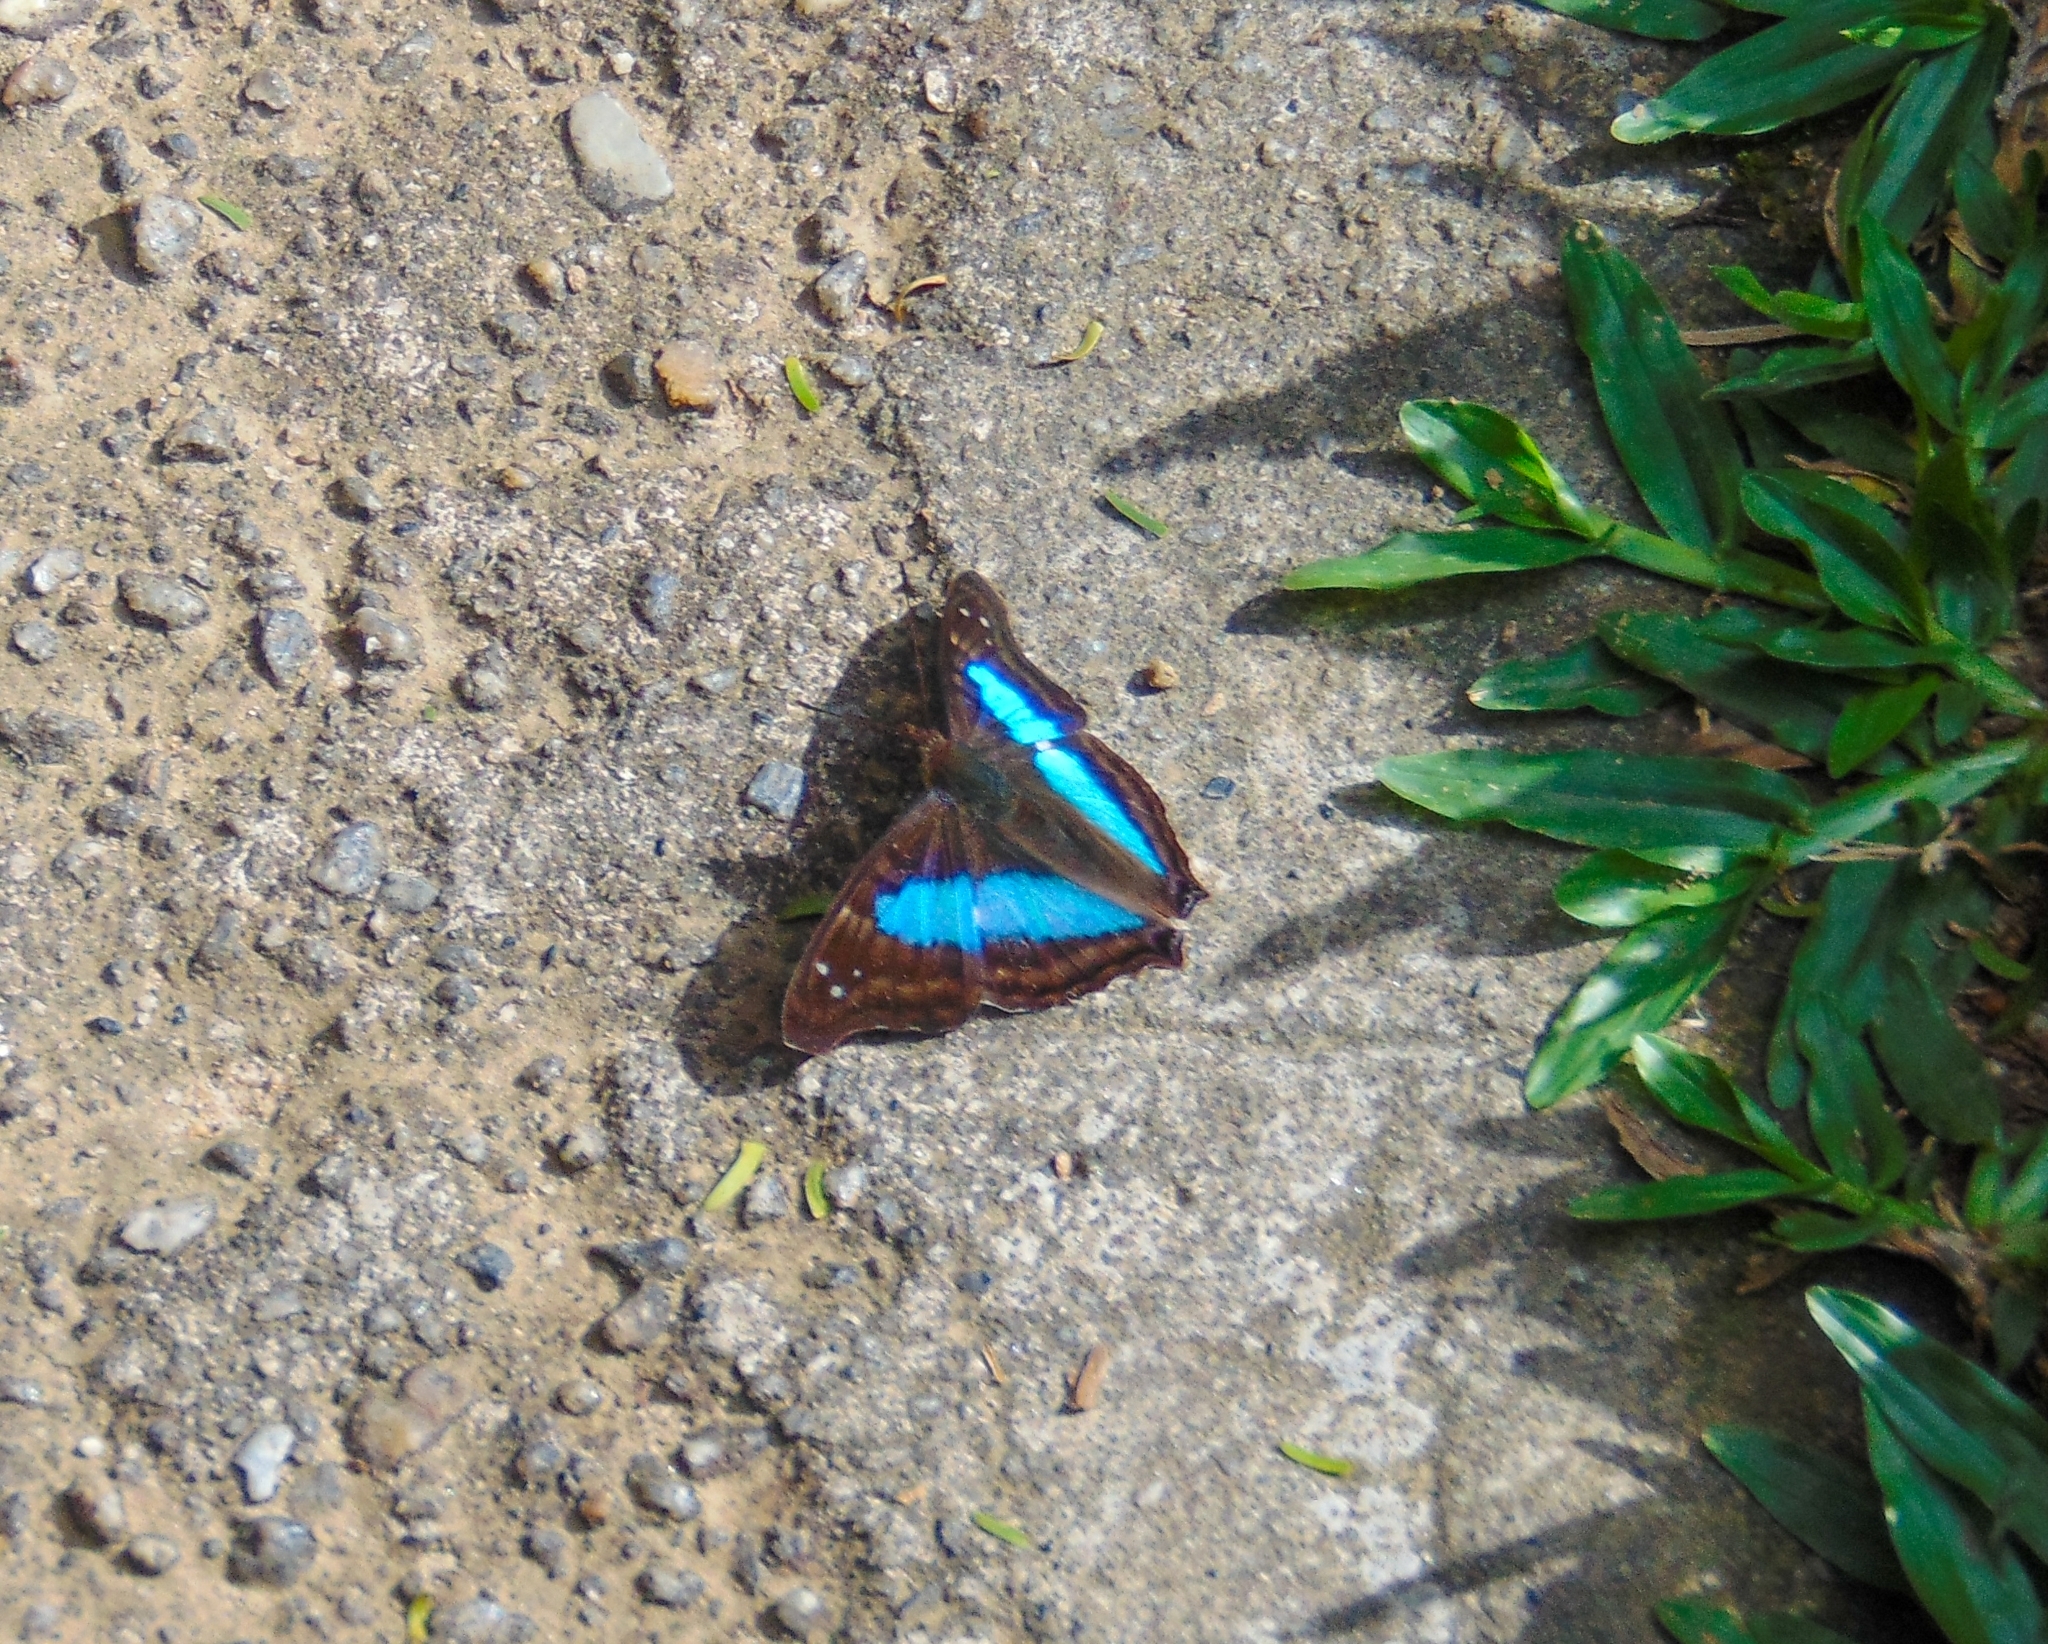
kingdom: Animalia
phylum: Arthropoda
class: Insecta
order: Lepidoptera
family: Nymphalidae
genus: Doxocopa
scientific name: Doxocopa laurentia
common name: Turquoise emperor
